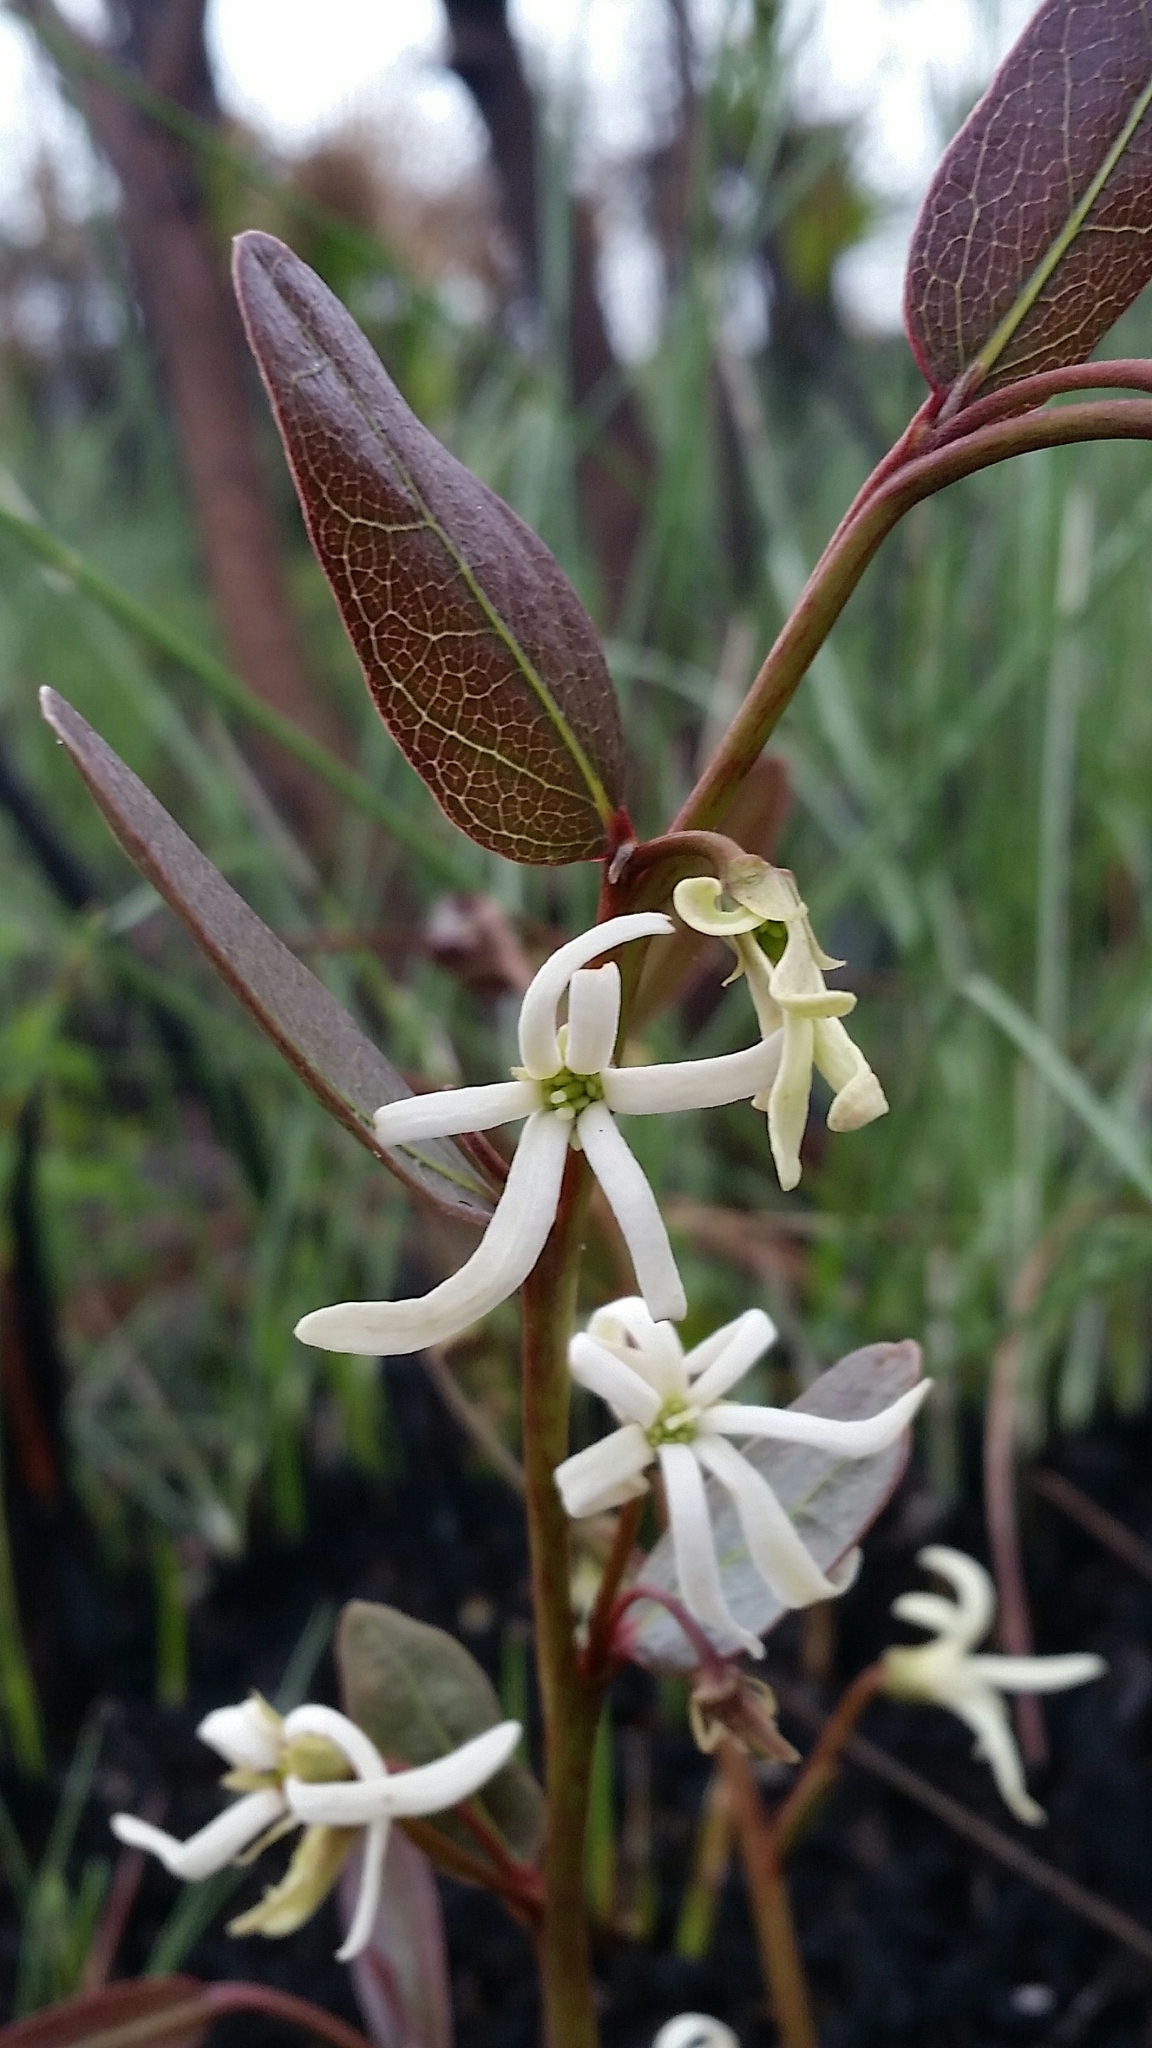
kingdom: Plantae
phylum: Tracheophyta
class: Magnoliopsida
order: Magnoliales
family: Annonaceae
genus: Asimina
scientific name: Asimina pulchella
